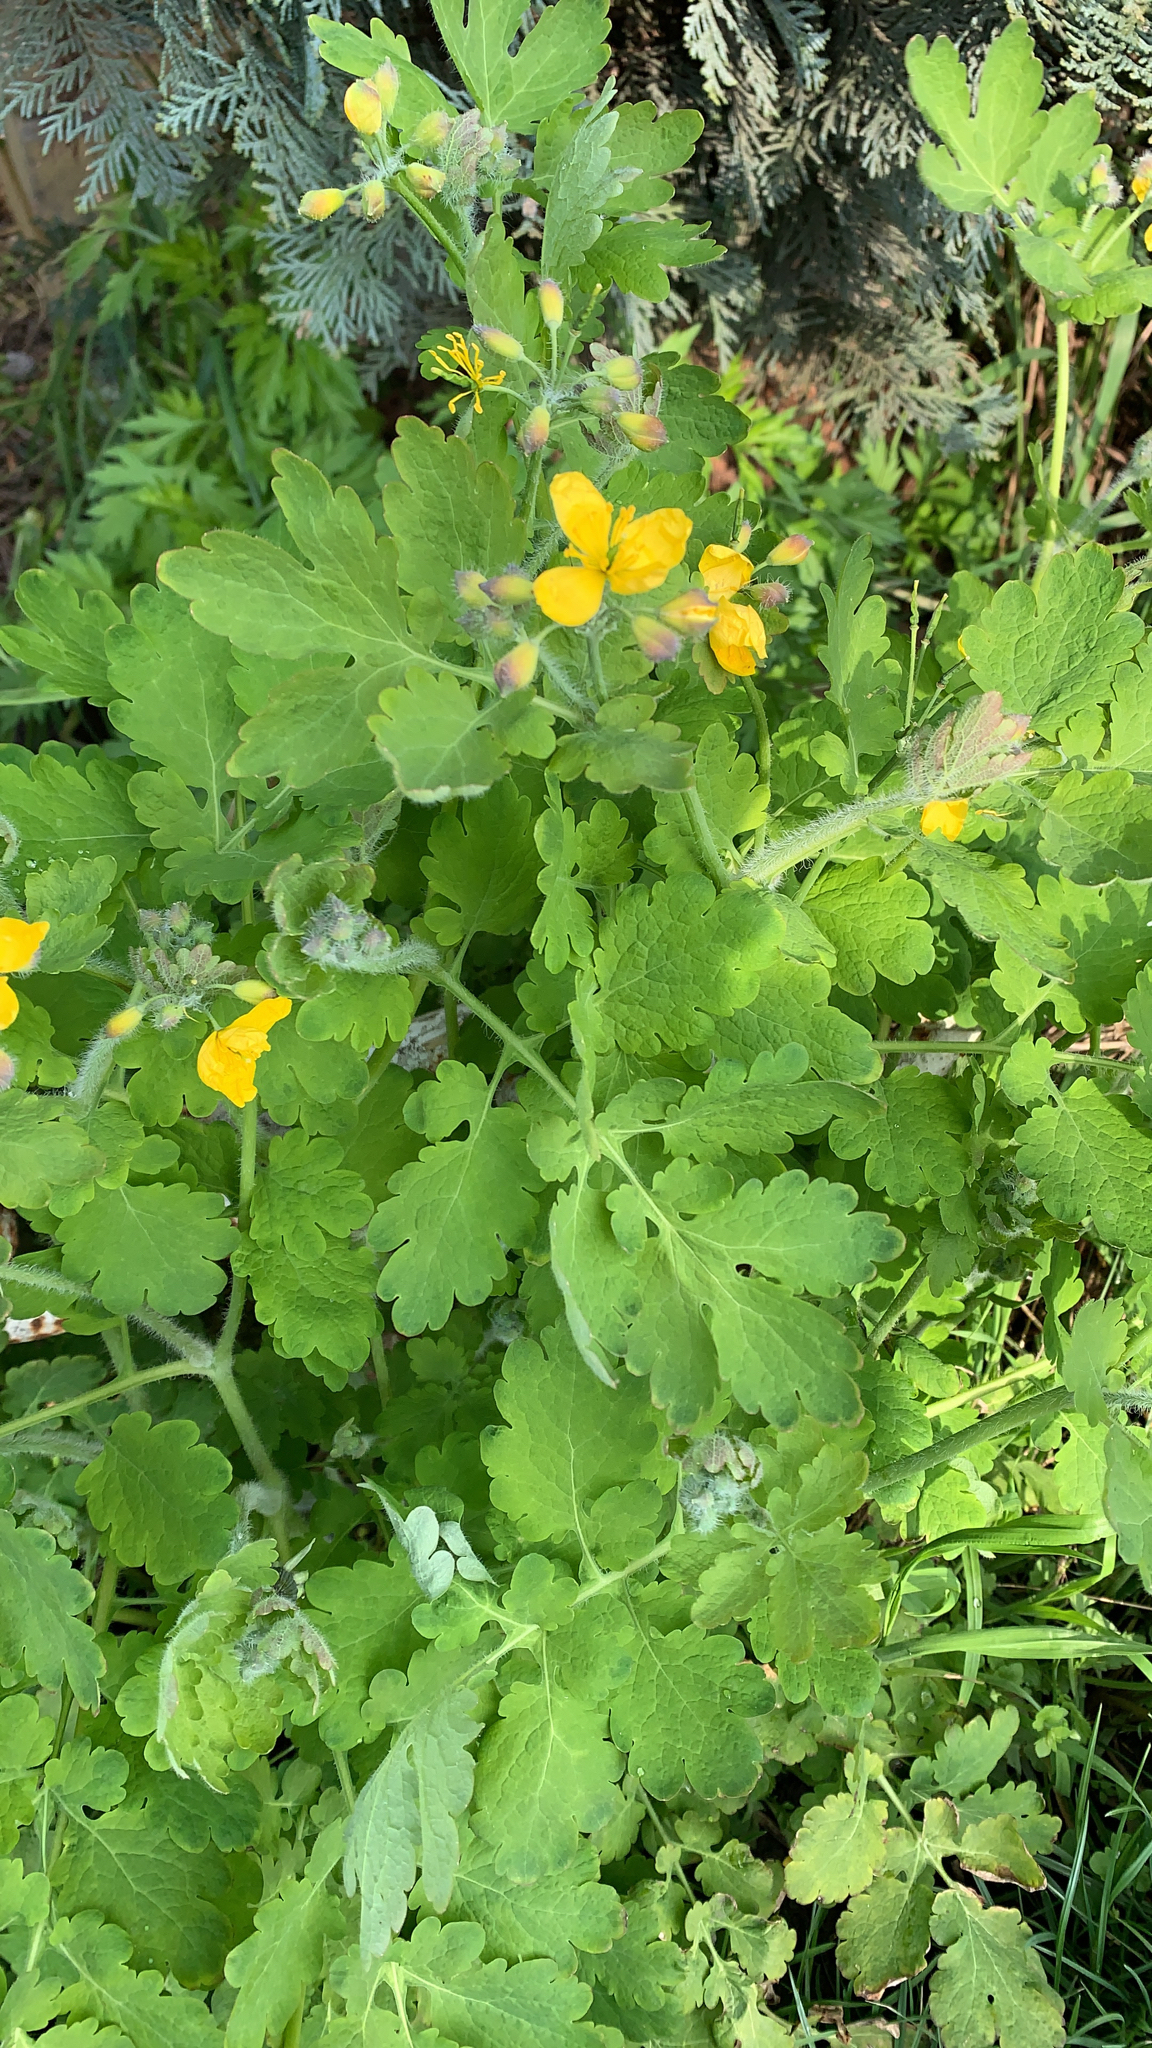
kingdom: Plantae
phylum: Tracheophyta
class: Magnoliopsida
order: Ranunculales
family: Papaveraceae
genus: Chelidonium
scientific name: Chelidonium majus
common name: Greater celandine
